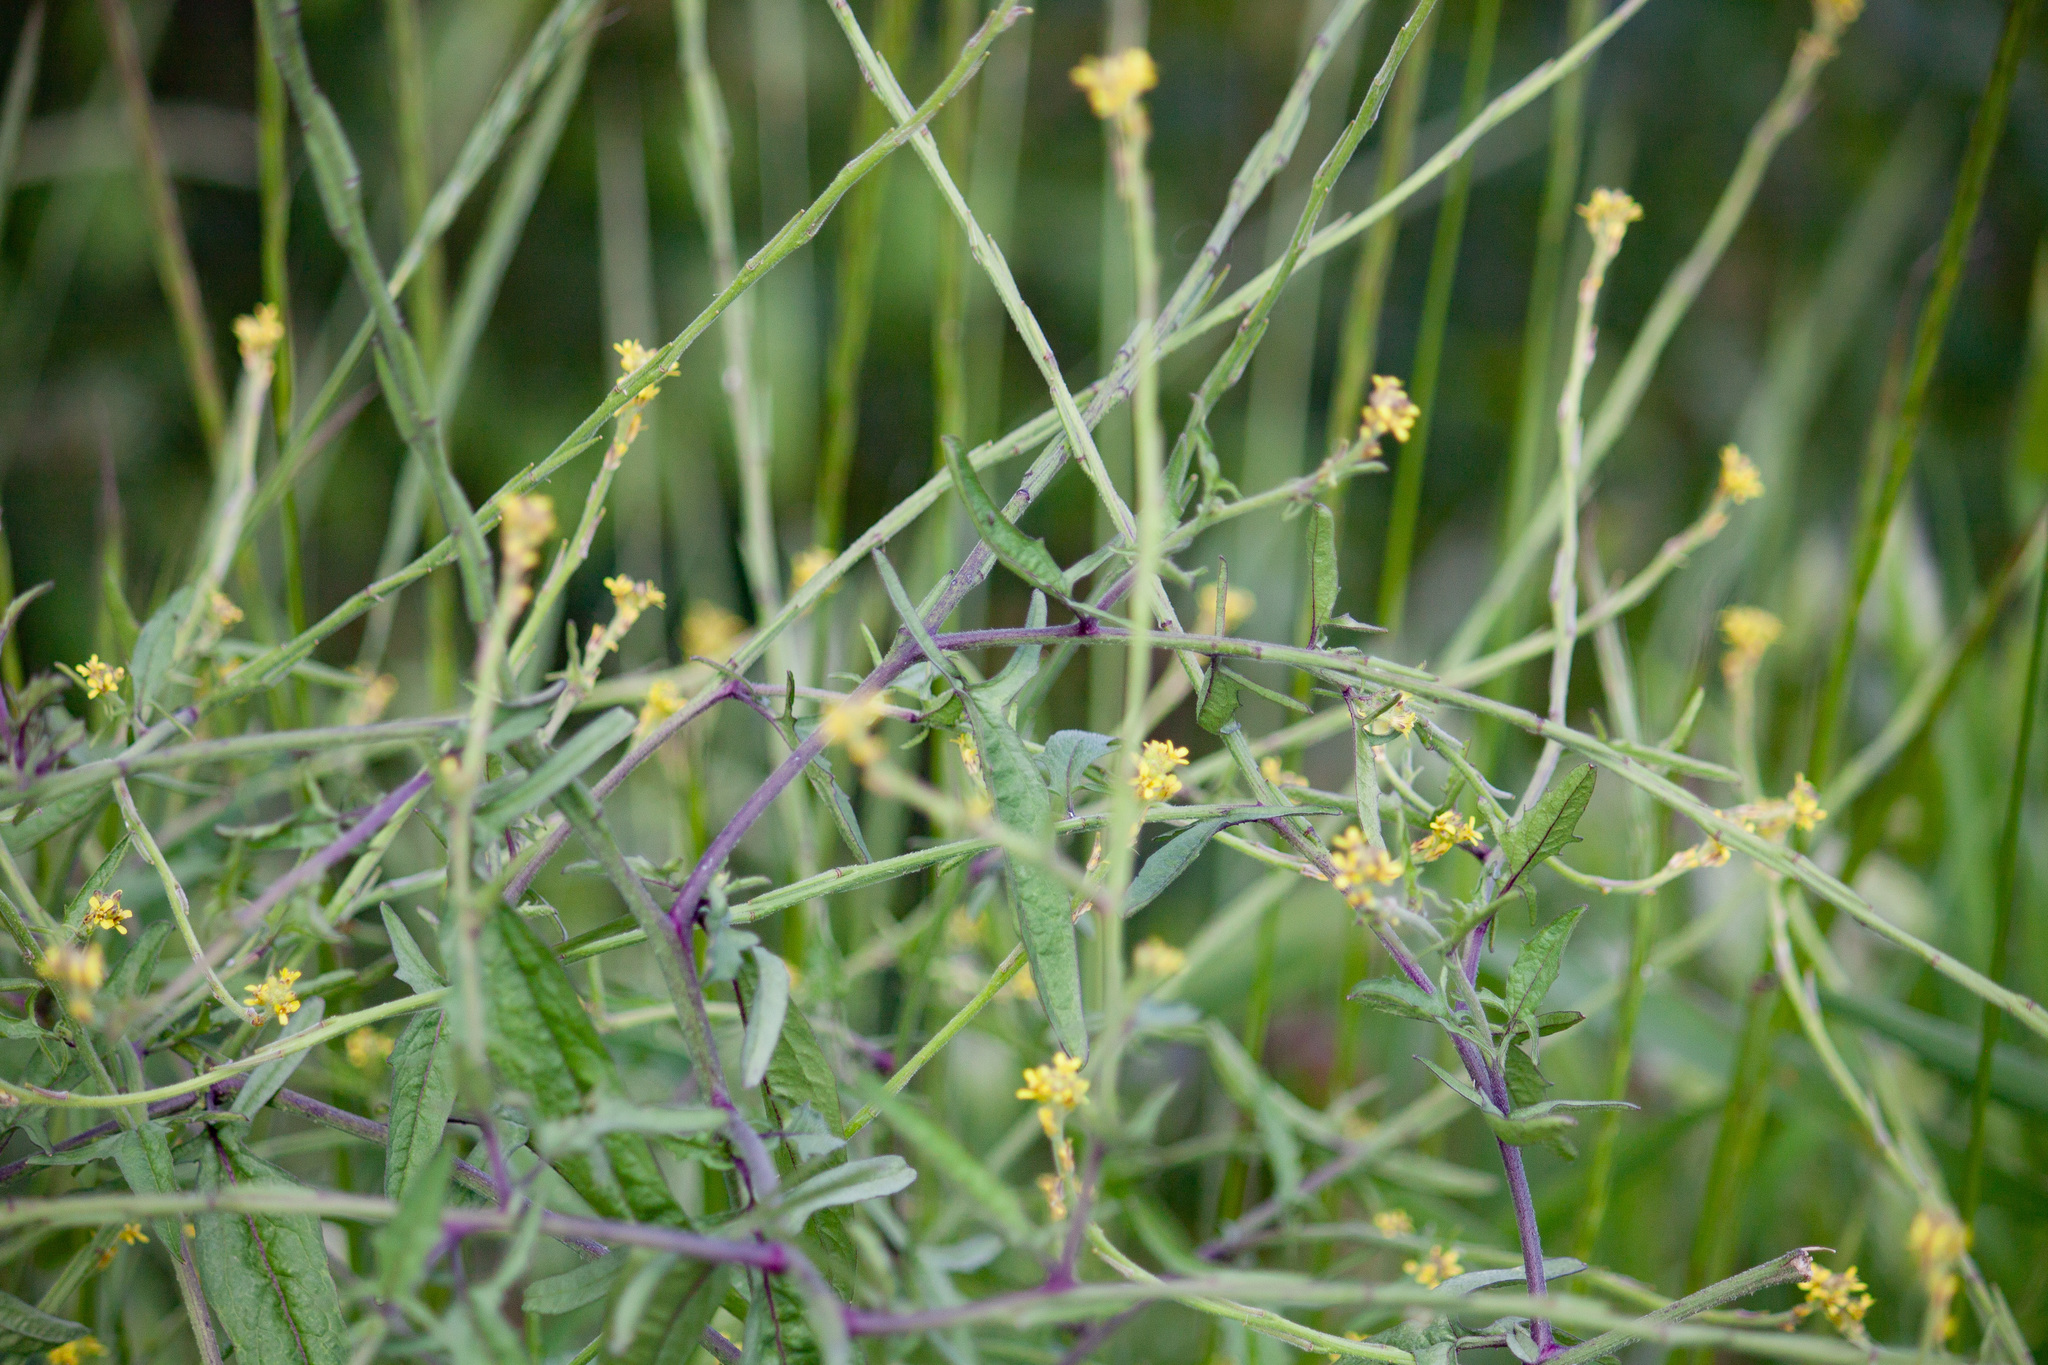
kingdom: Plantae
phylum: Tracheophyta
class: Magnoliopsida
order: Brassicales
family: Brassicaceae
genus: Sisymbrium
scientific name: Sisymbrium officinale
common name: Hedge mustard
